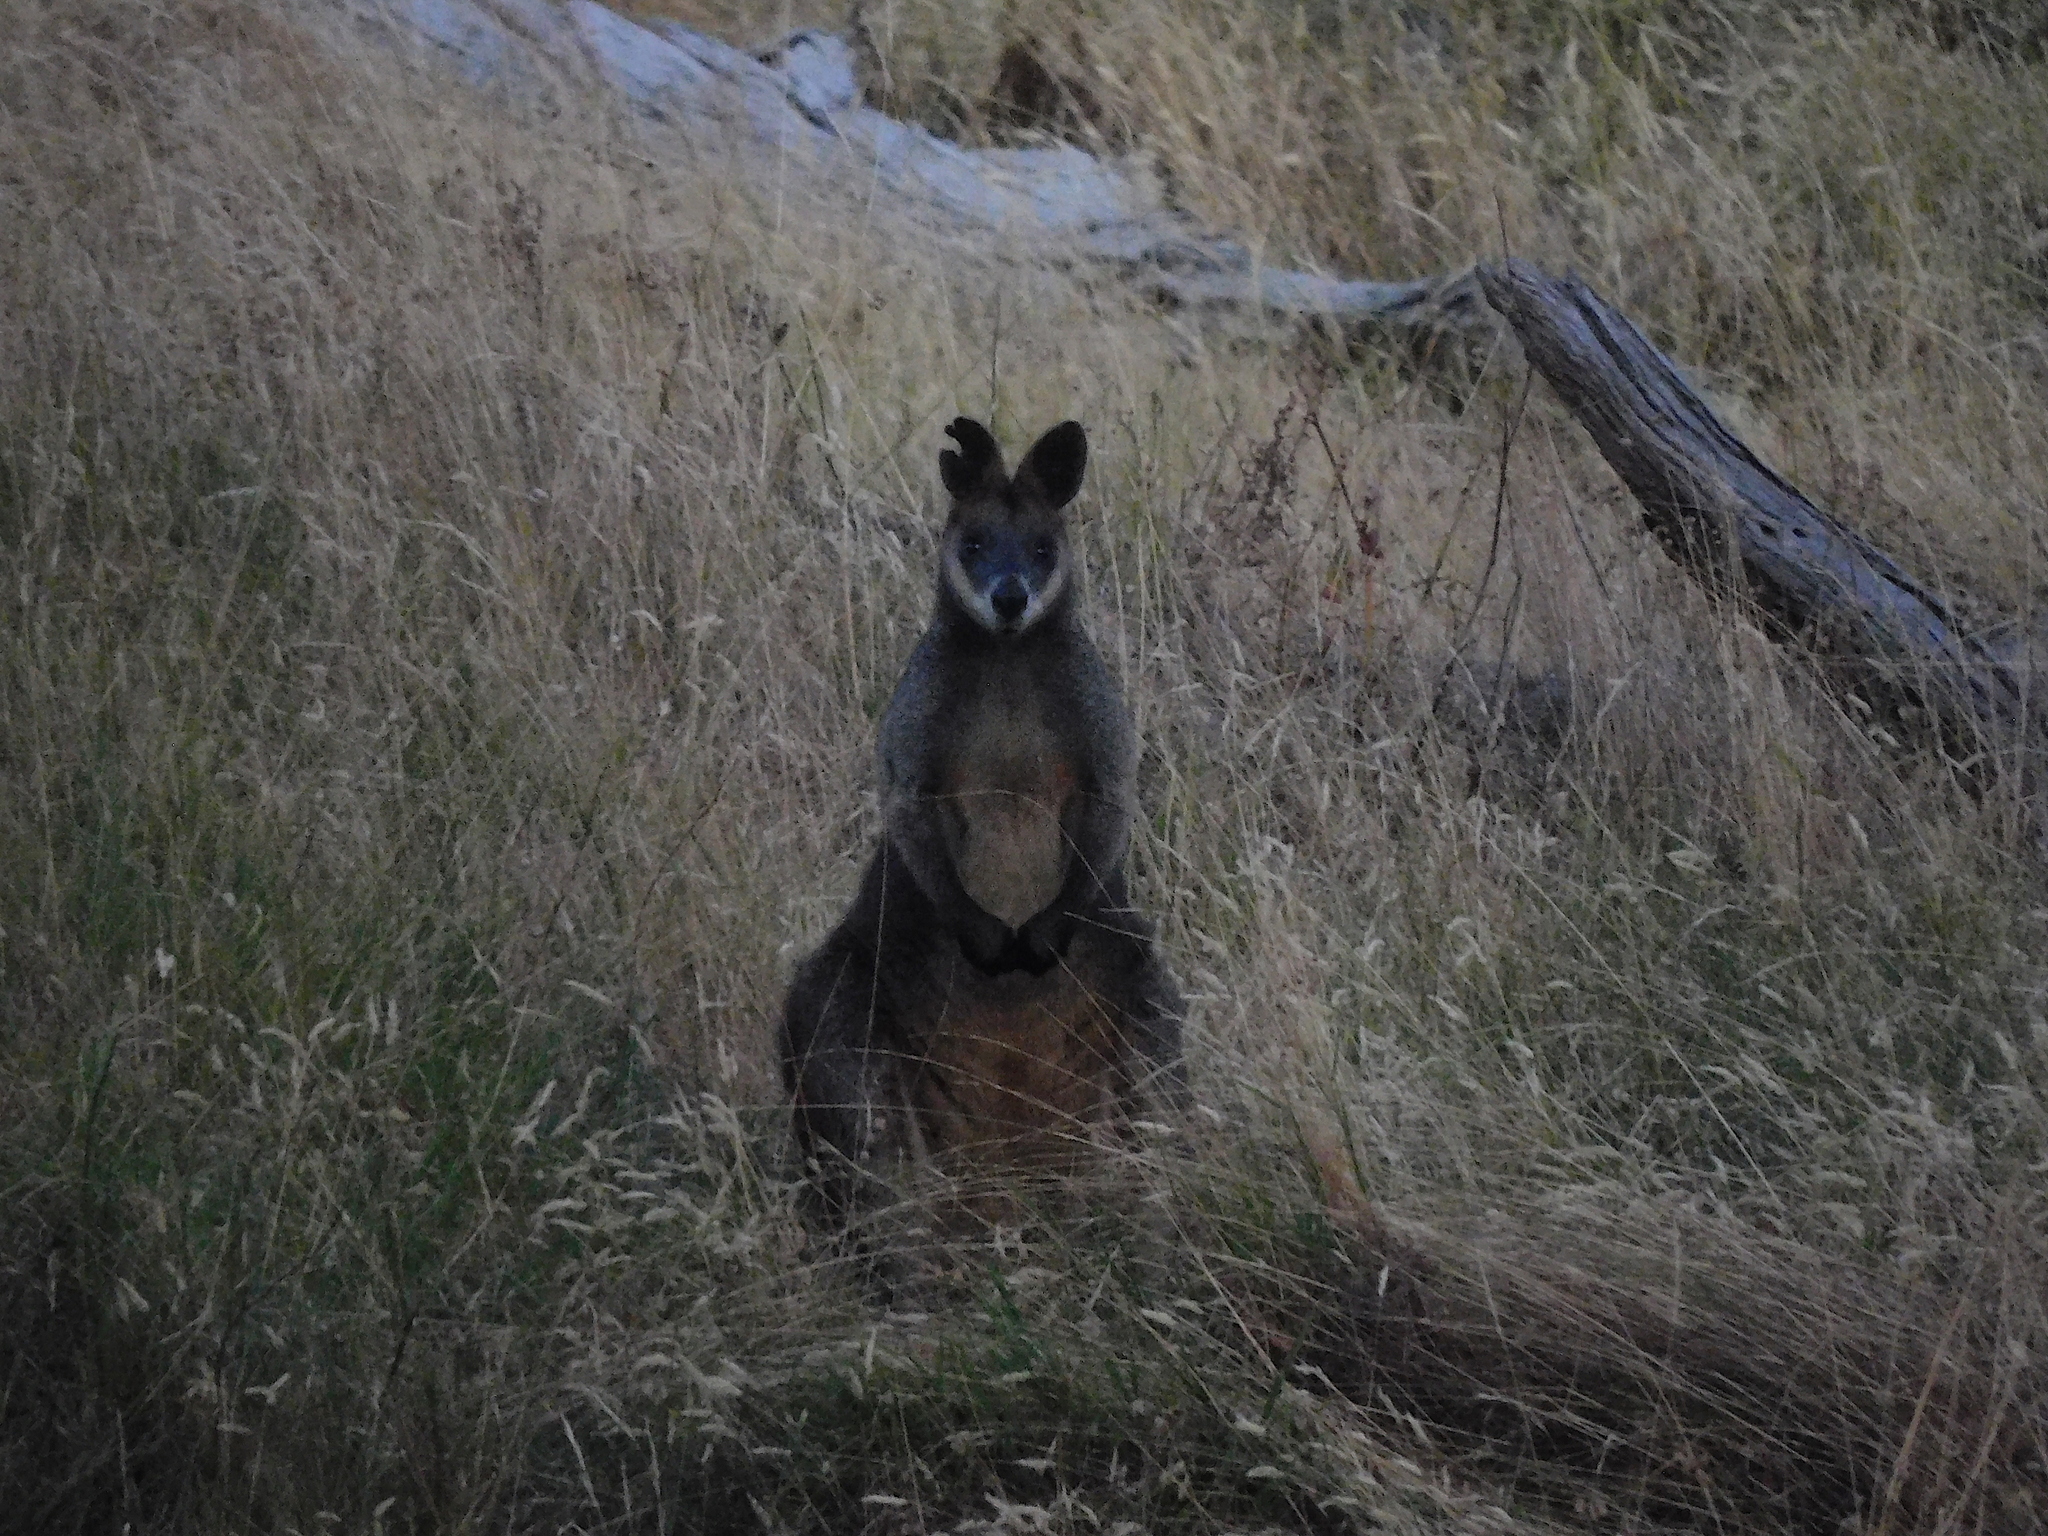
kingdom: Animalia
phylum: Chordata
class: Mammalia
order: Diprotodontia
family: Macropodidae
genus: Wallabia
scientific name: Wallabia bicolor
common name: Swamp wallaby
